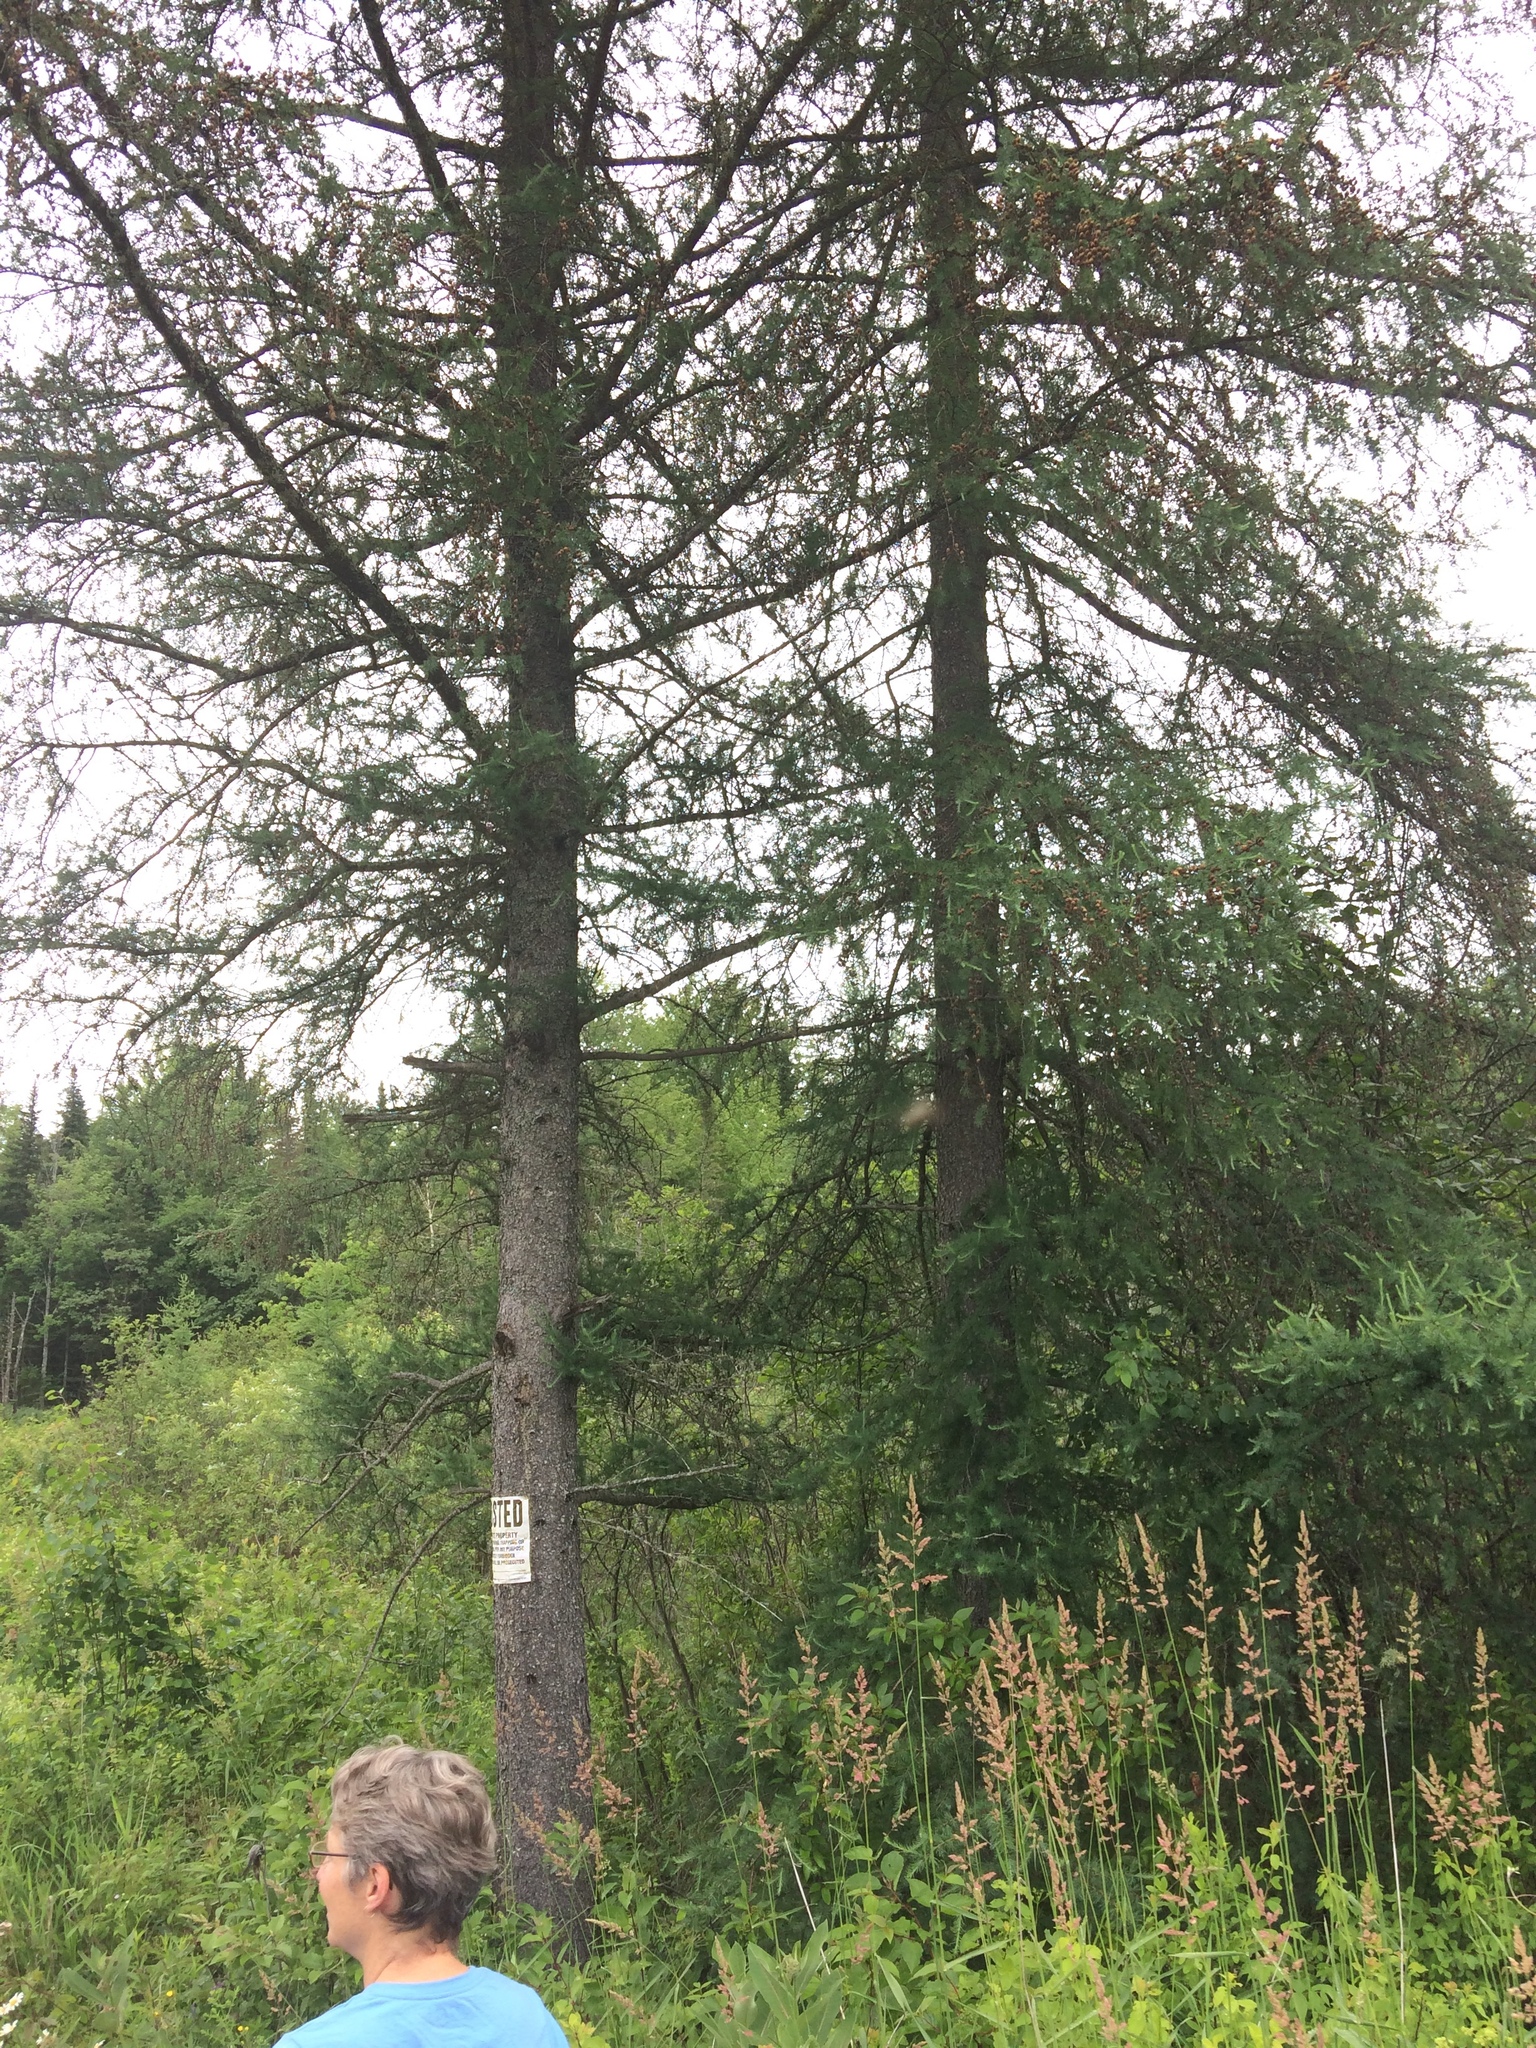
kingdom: Plantae
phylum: Tracheophyta
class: Pinopsida
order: Pinales
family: Pinaceae
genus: Larix
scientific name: Larix laricina
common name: American larch
